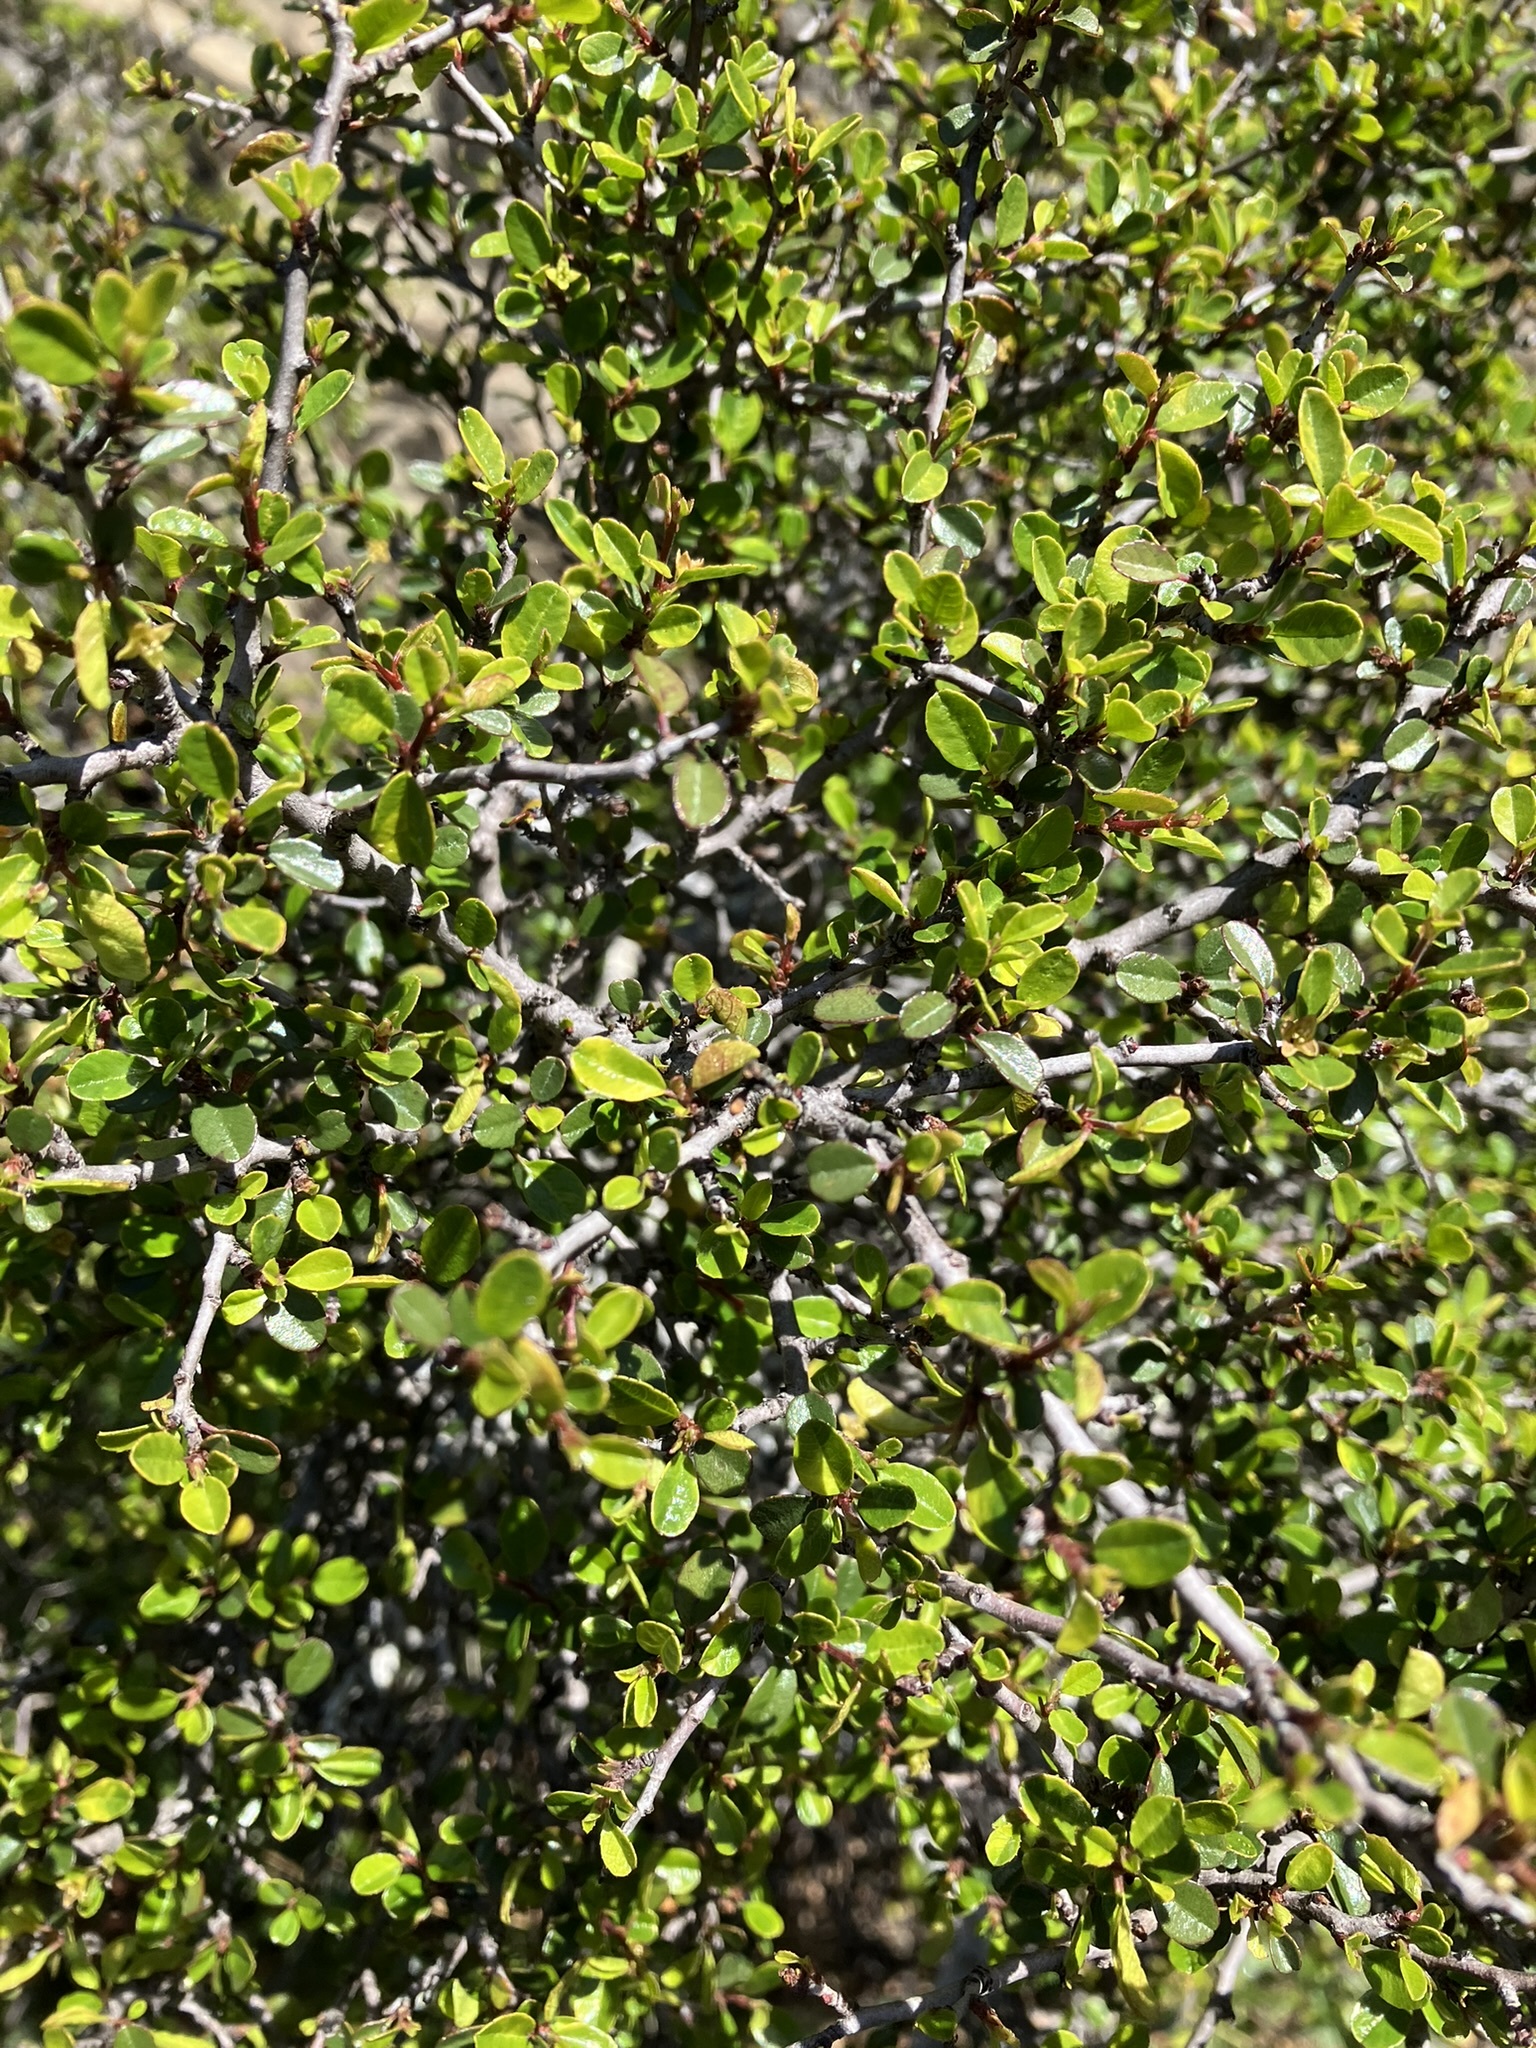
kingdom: Plantae
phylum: Tracheophyta
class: Magnoliopsida
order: Rosales
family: Rhamnaceae
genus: Endotropis
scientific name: Endotropis crocea
